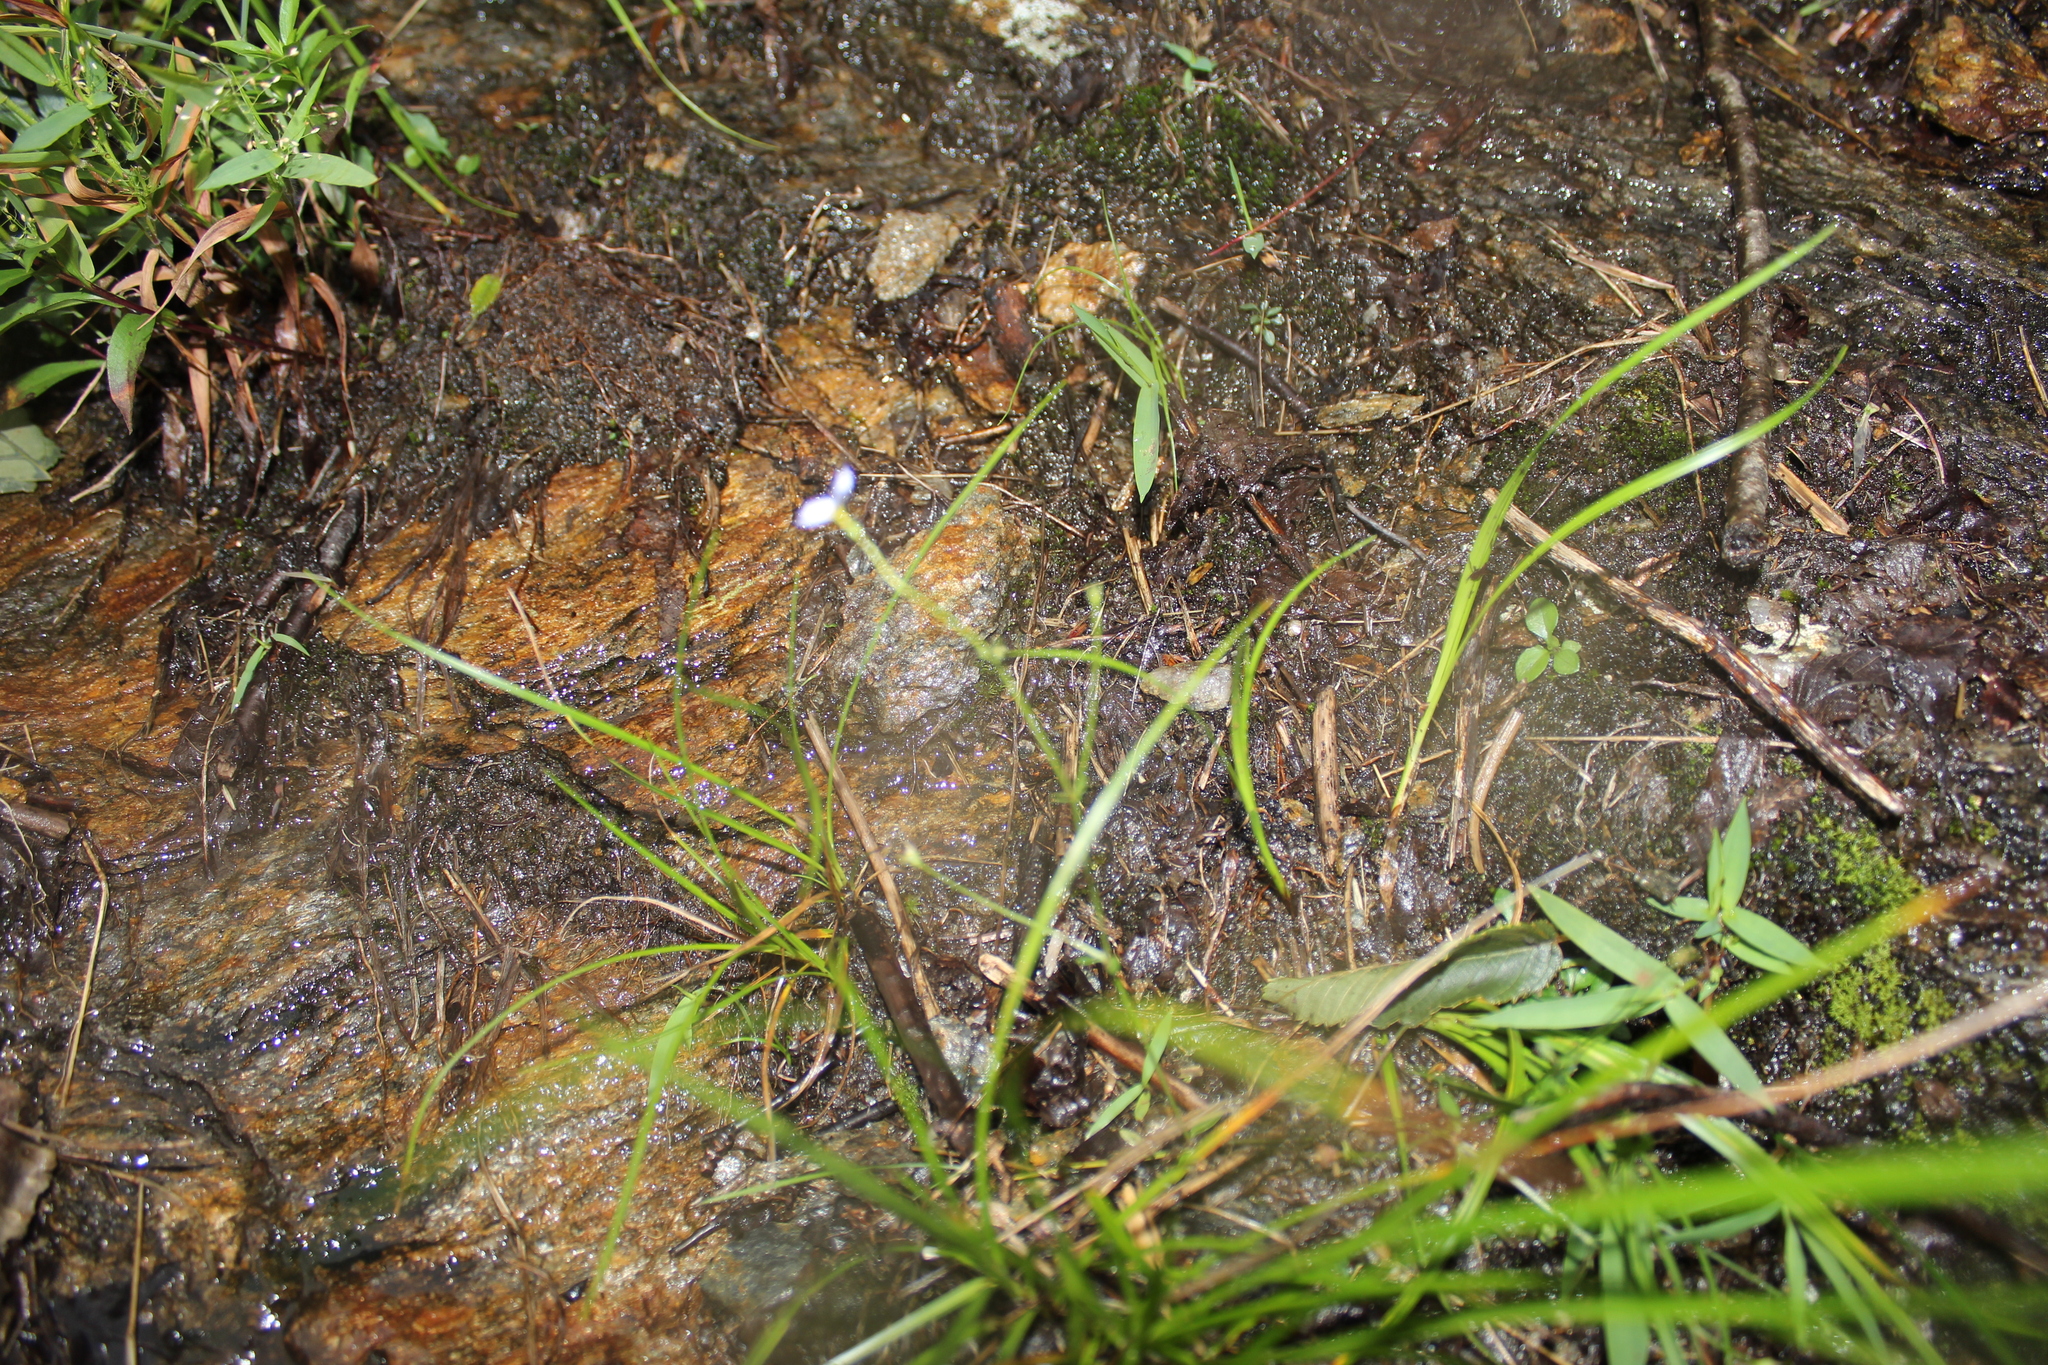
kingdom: Plantae
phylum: Tracheophyta
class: Magnoliopsida
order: Gentianales
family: Rubiaceae
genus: Houstonia
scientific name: Houstonia caerulea
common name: Bluets
